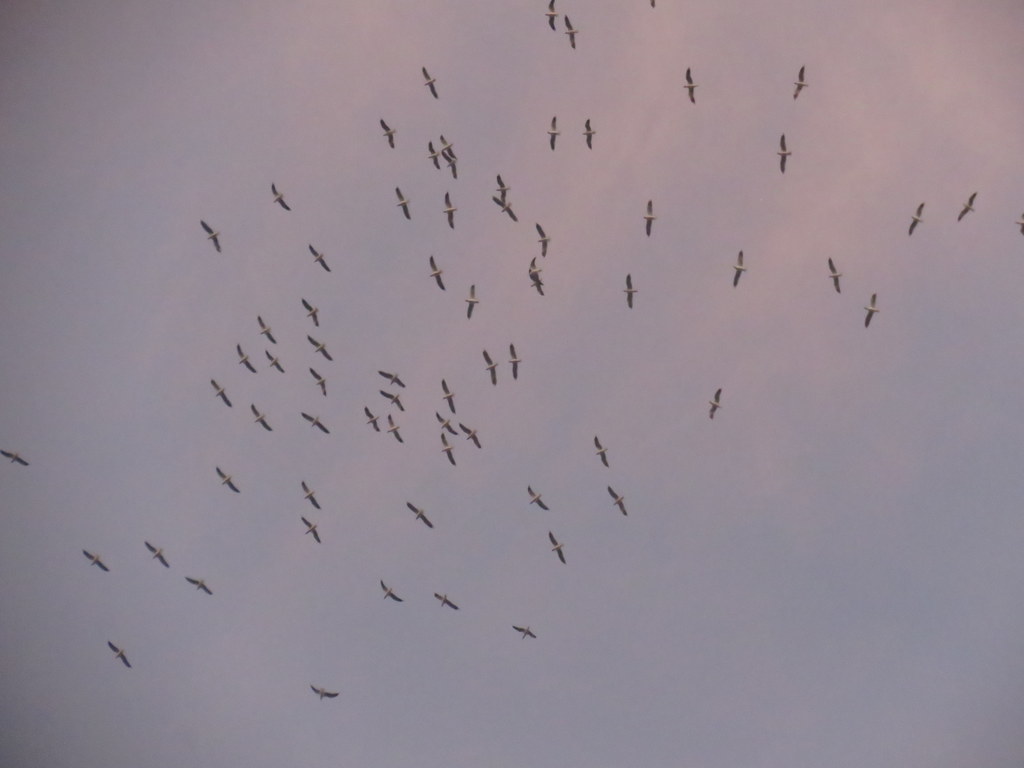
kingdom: Animalia
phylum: Chordata
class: Aves
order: Charadriiformes
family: Laridae
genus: Chroicocephalus
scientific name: Chroicocephalus maculipennis
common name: Brown-hooded gull
